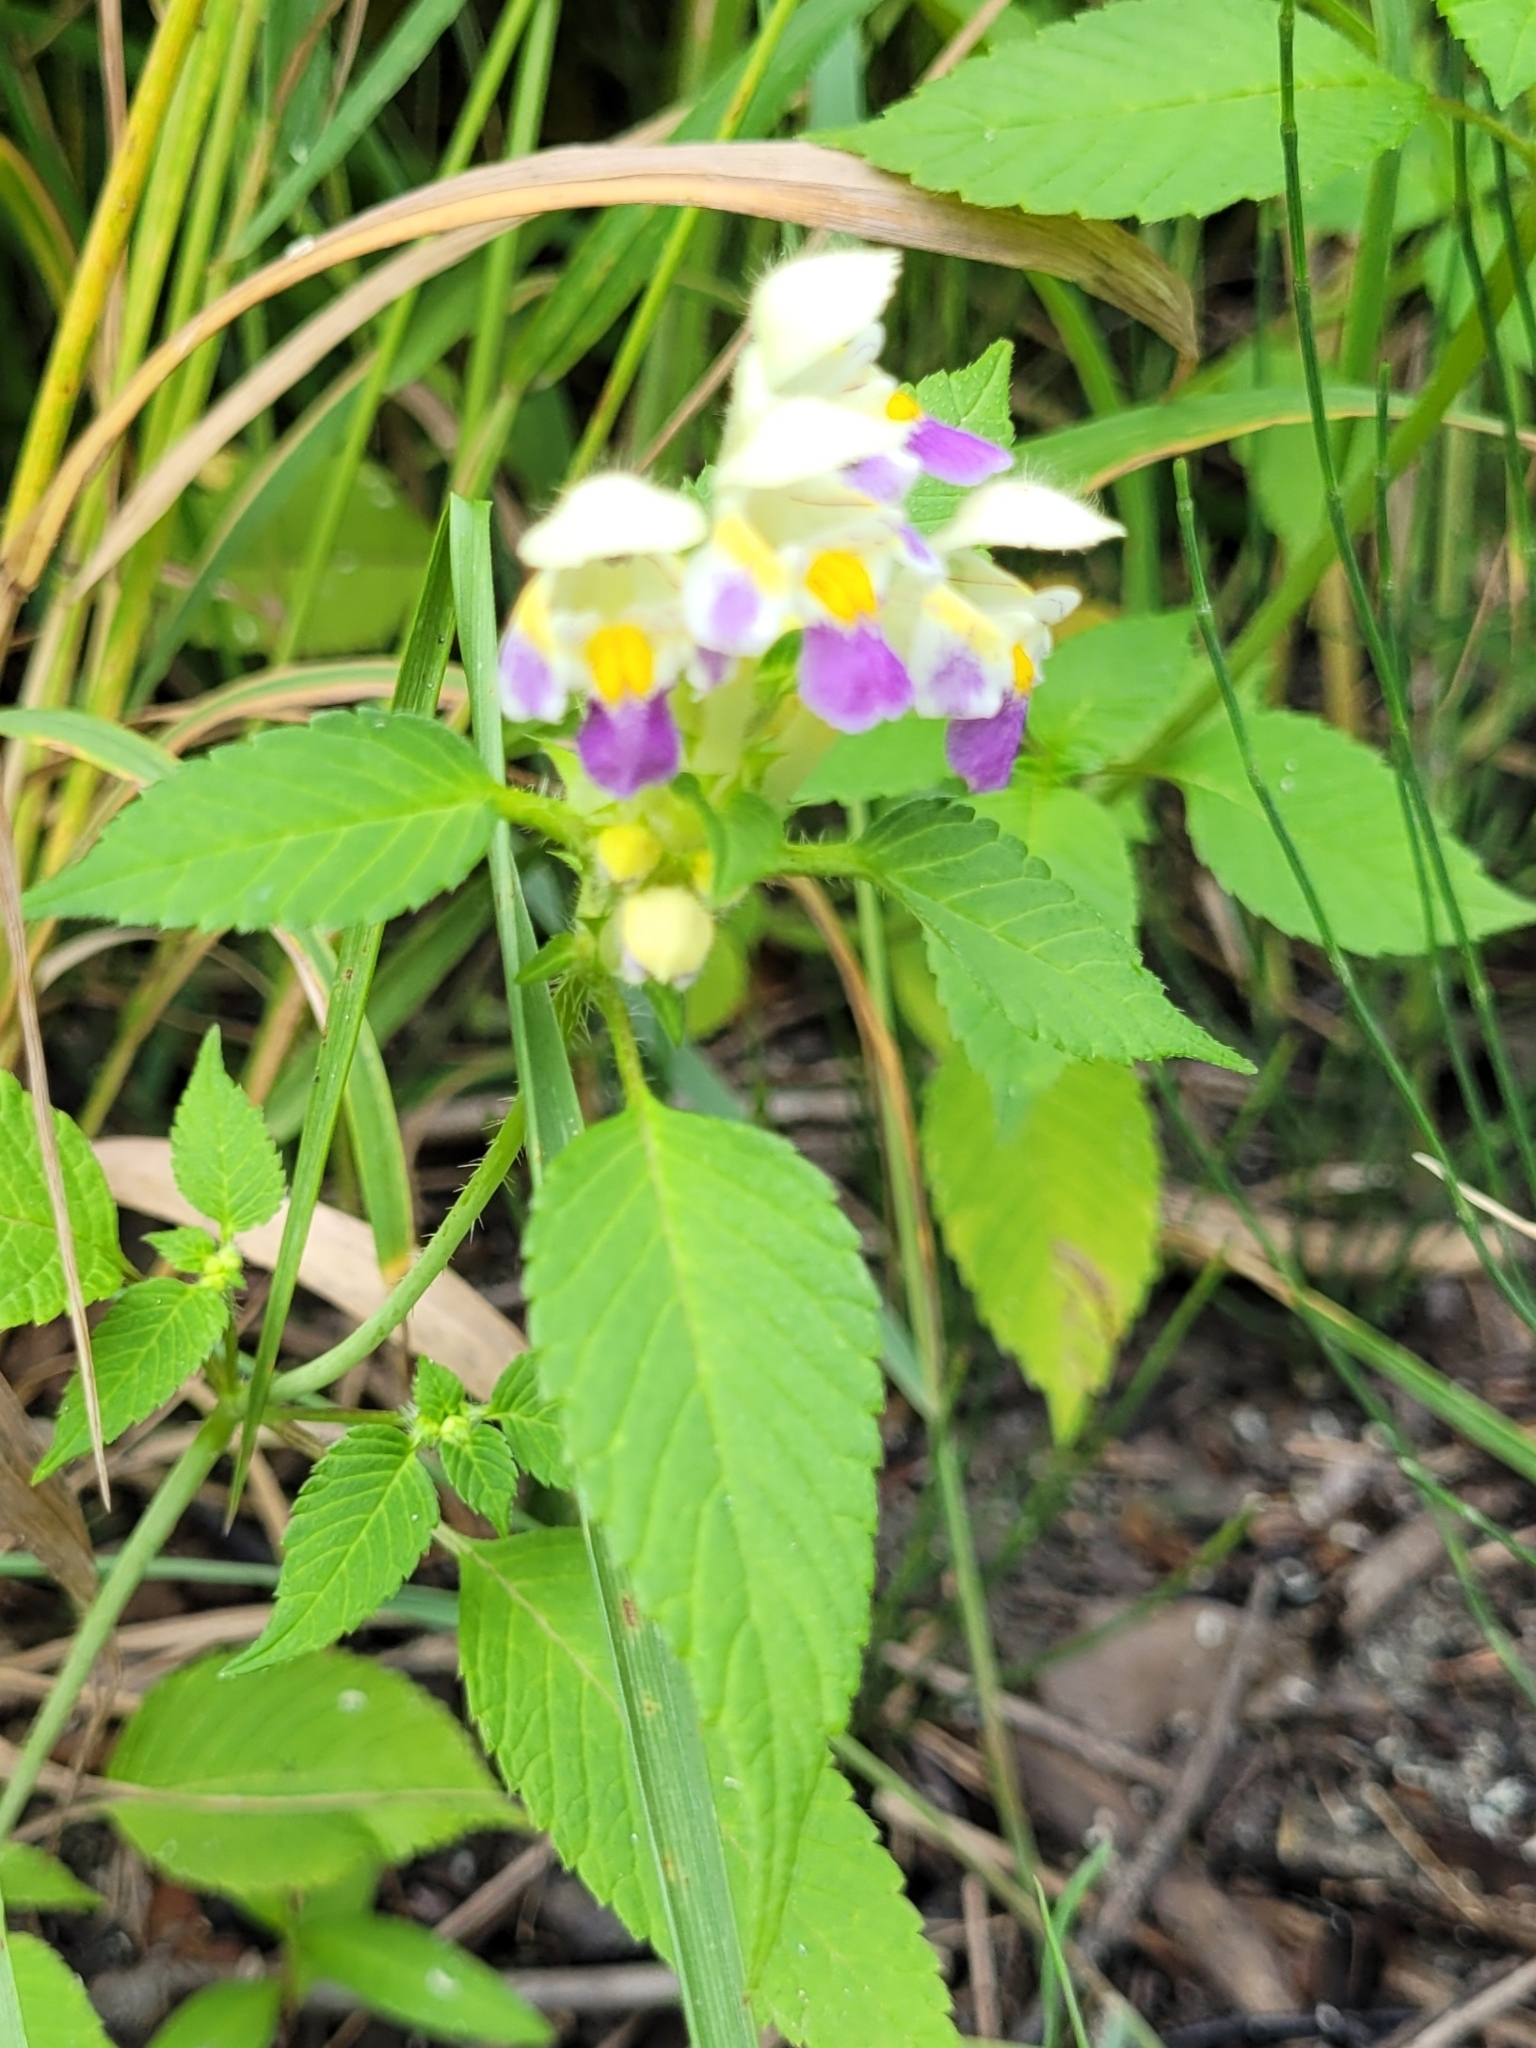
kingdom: Plantae
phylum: Tracheophyta
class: Magnoliopsida
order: Lamiales
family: Lamiaceae
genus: Galeopsis
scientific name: Galeopsis speciosa
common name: Large-flowered hemp-nettle
